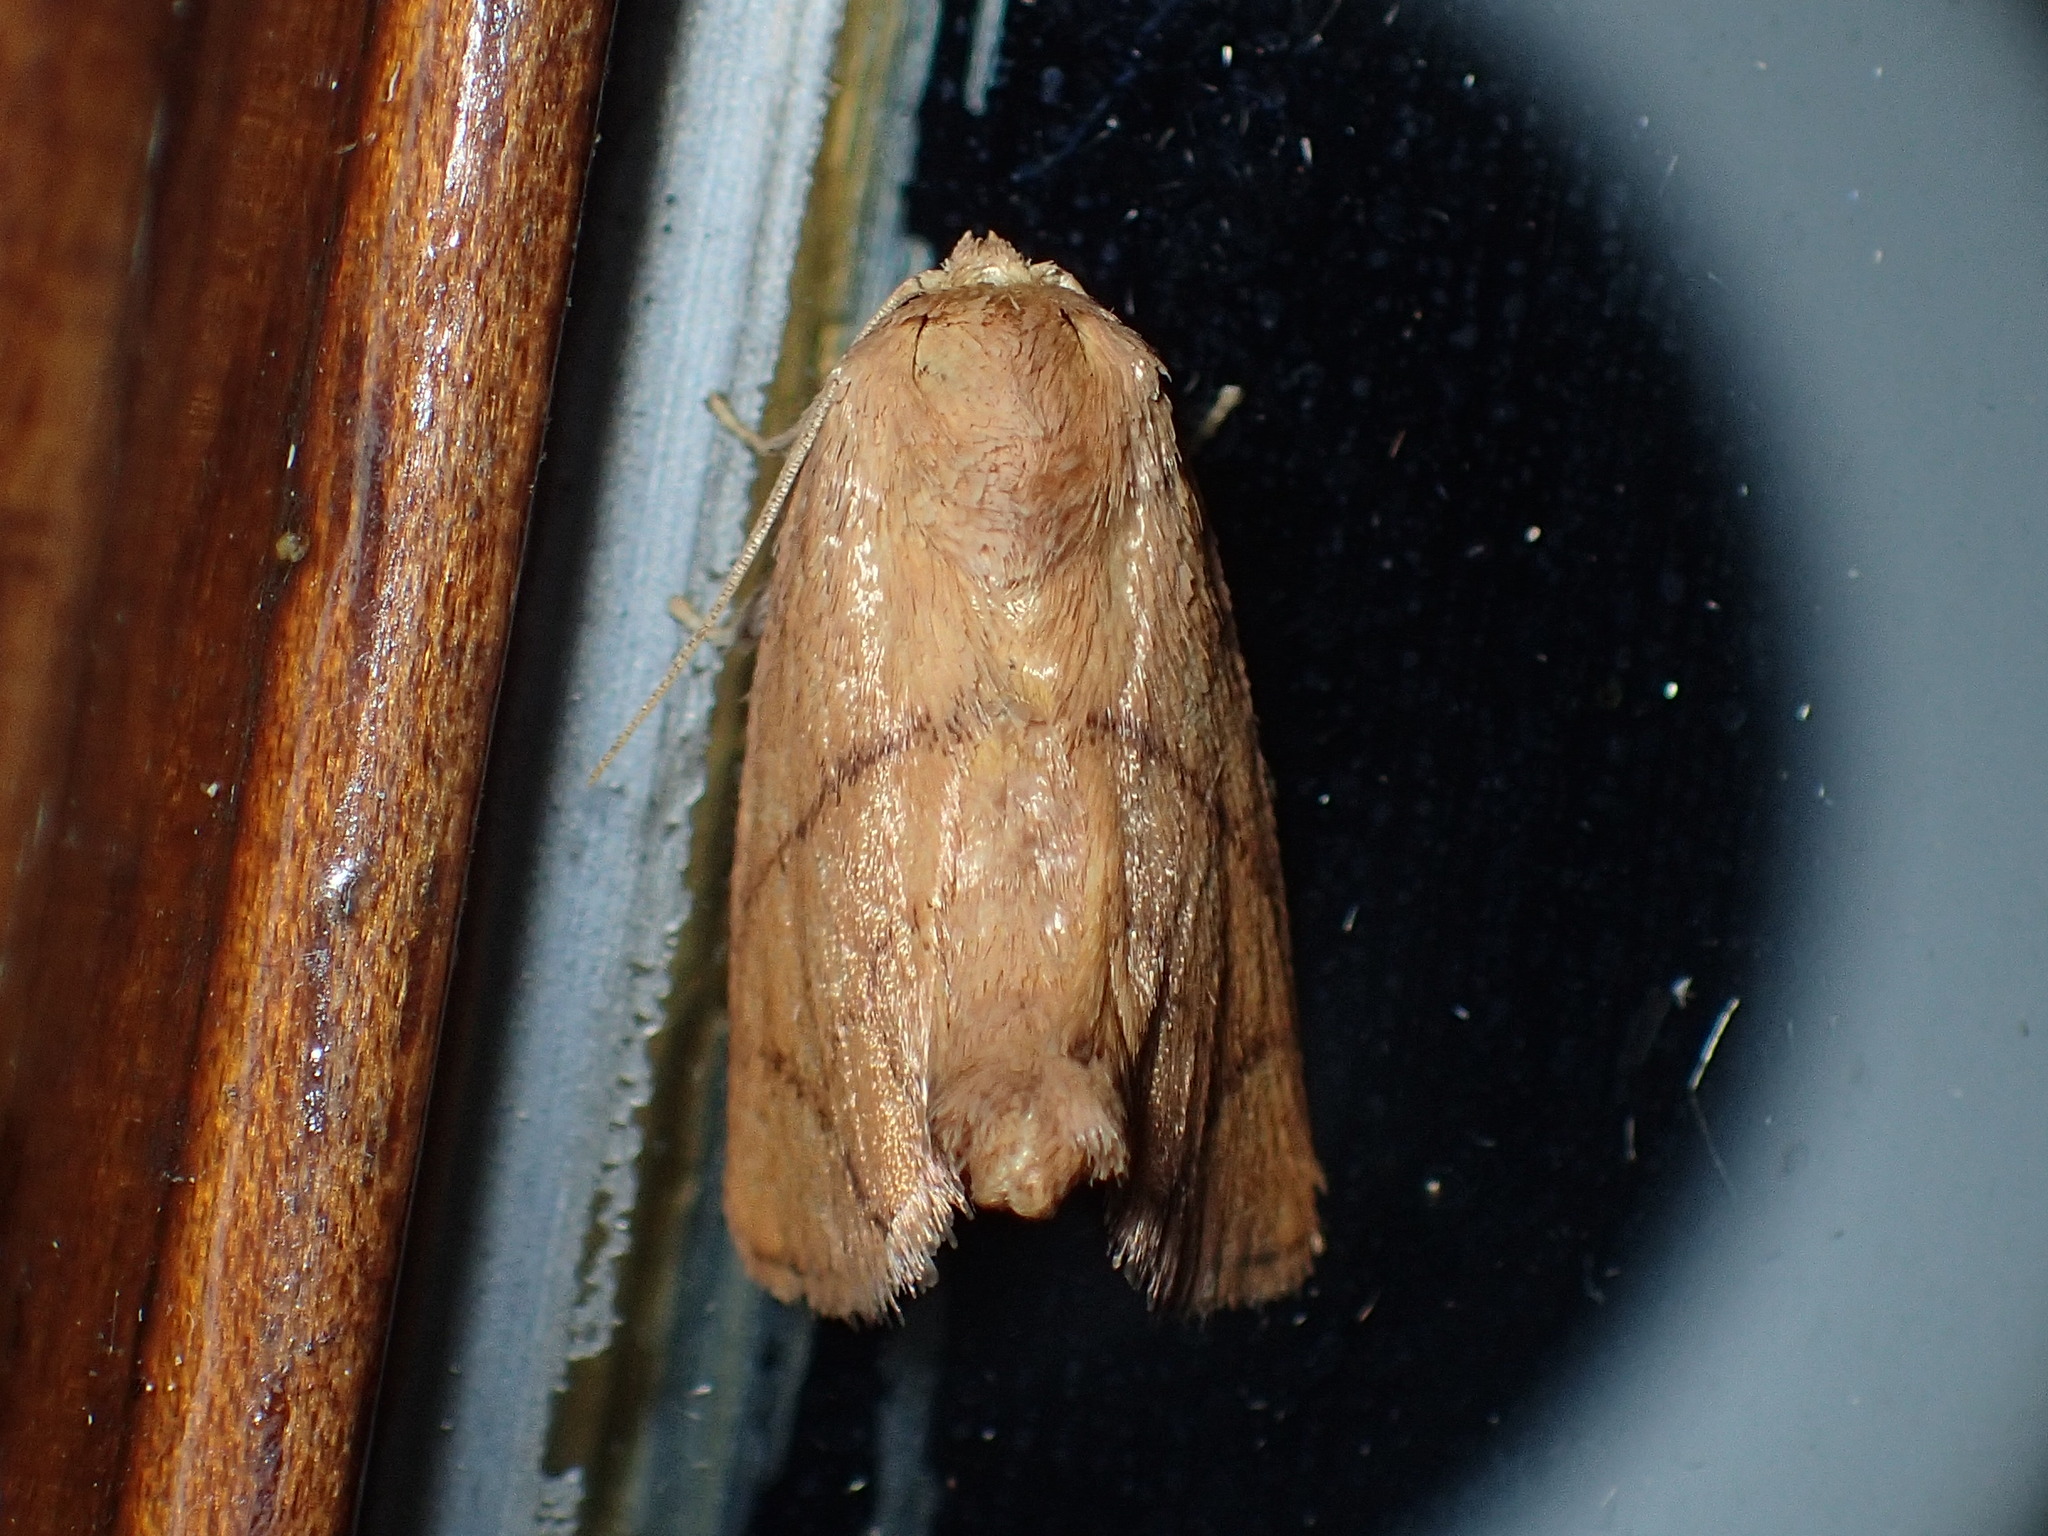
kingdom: Animalia
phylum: Arthropoda
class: Insecta
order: Lepidoptera
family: Limacodidae
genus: Apoda
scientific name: Apoda y-inversa
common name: Yellow-collared slug moth
